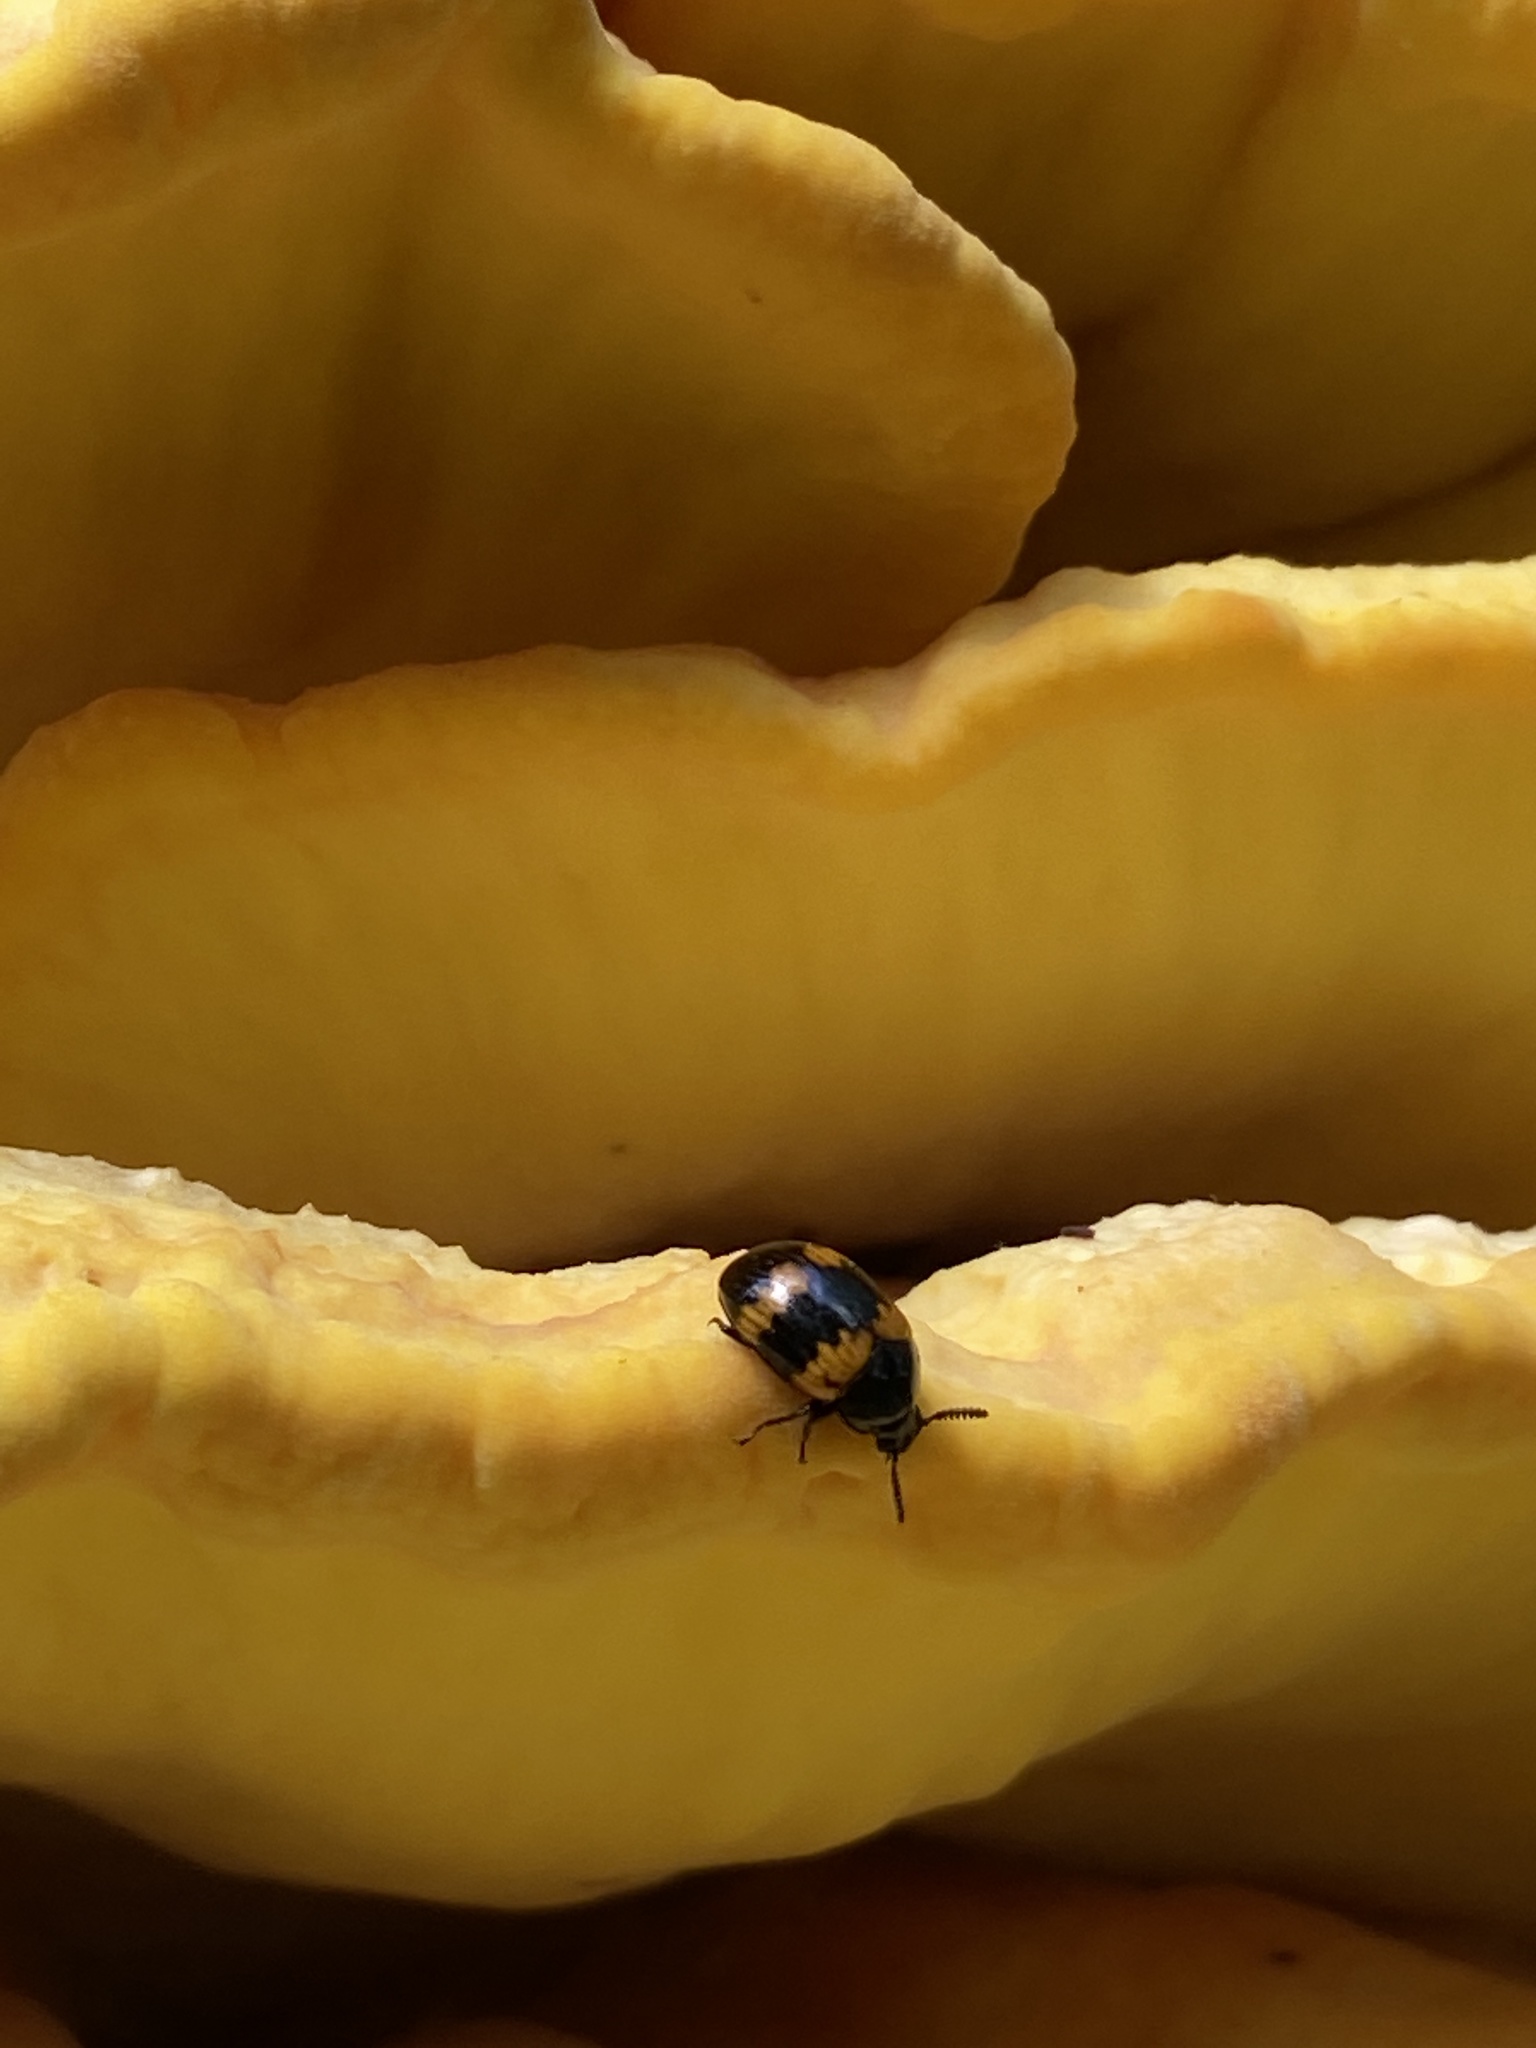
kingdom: Animalia
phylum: Arthropoda
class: Insecta
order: Coleoptera
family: Tenebrionidae
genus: Diaperis
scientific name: Diaperis boleti
